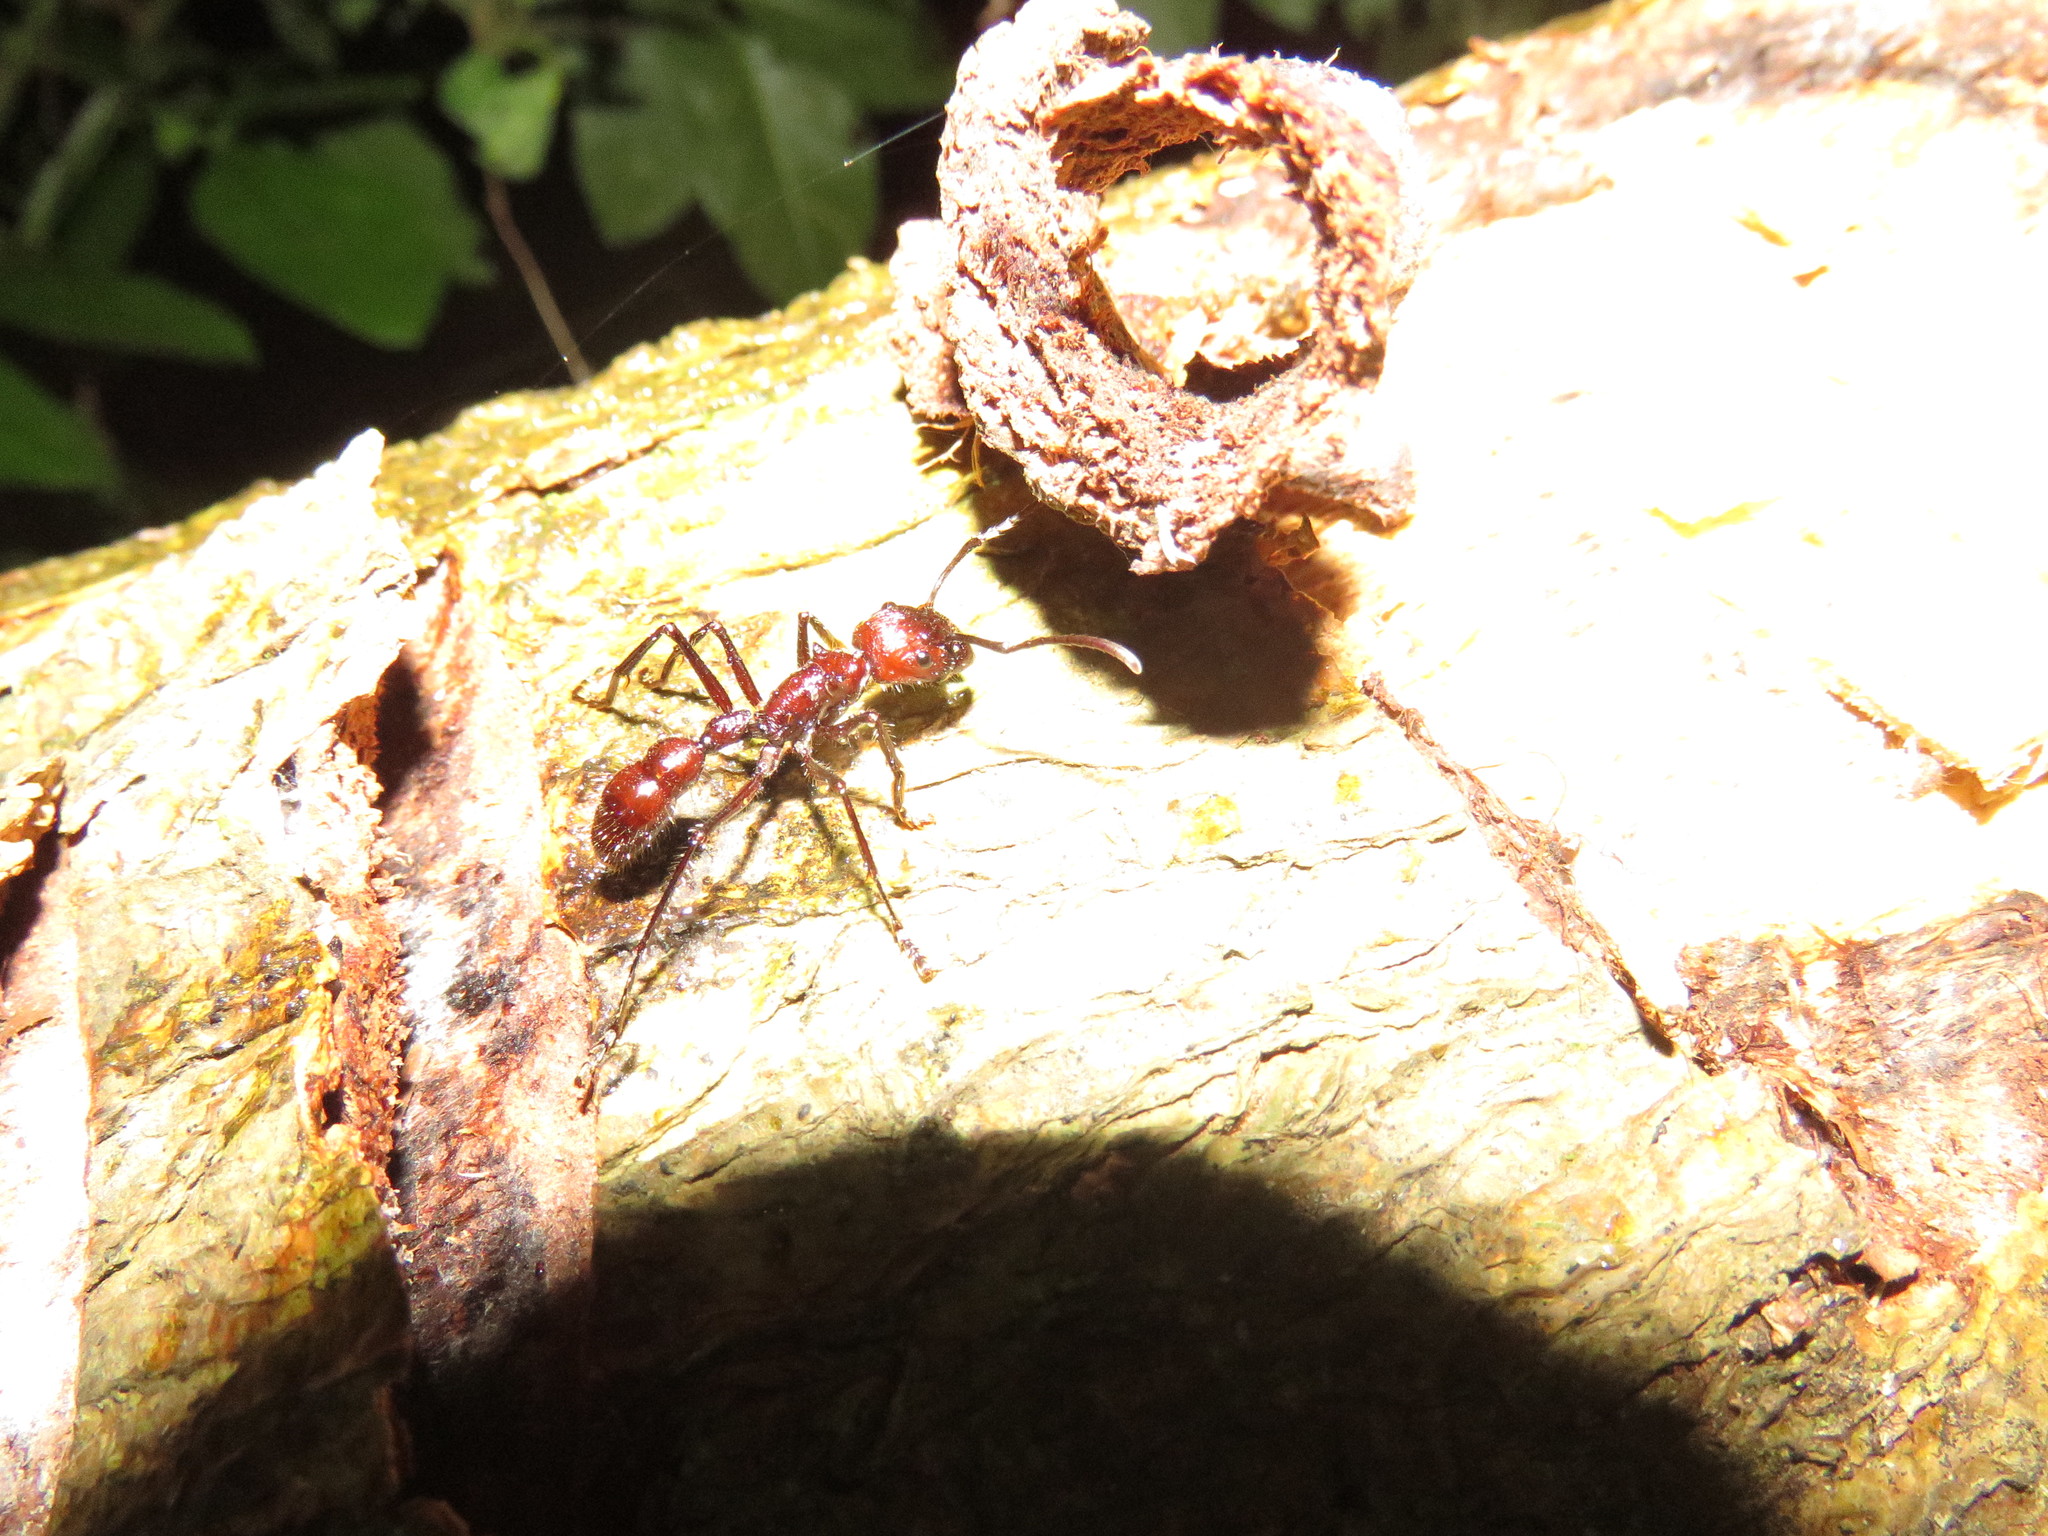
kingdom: Animalia
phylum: Arthropoda
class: Insecta
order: Hymenoptera
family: Formicidae
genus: Paraponera
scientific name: Paraponera clavata
